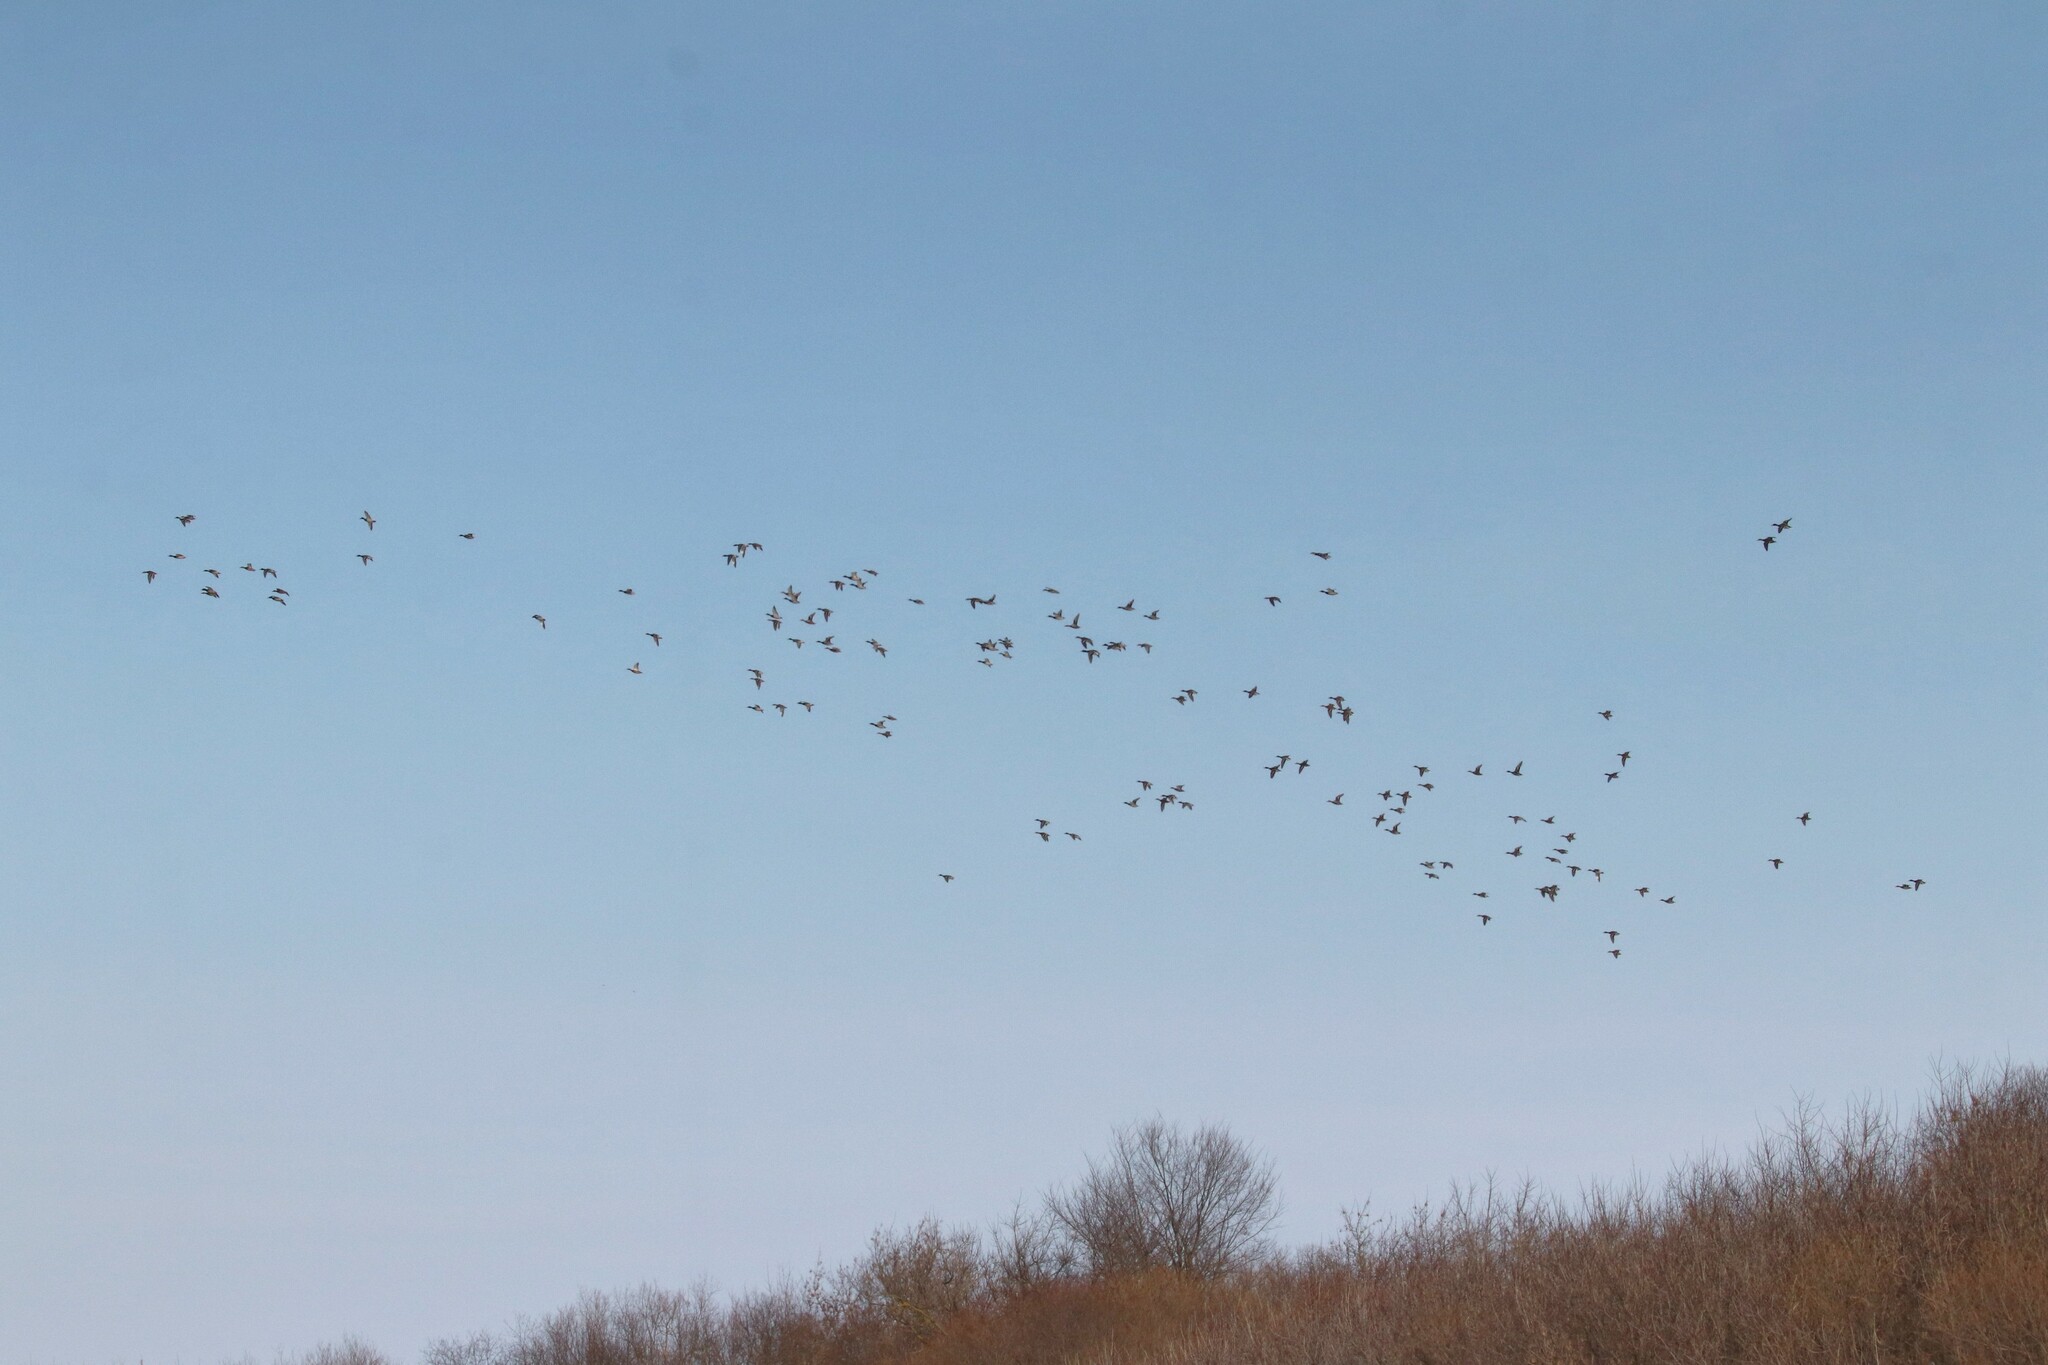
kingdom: Animalia
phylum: Chordata
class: Aves
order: Anseriformes
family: Anatidae
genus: Anas
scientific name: Anas platyrhynchos
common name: Mallard
